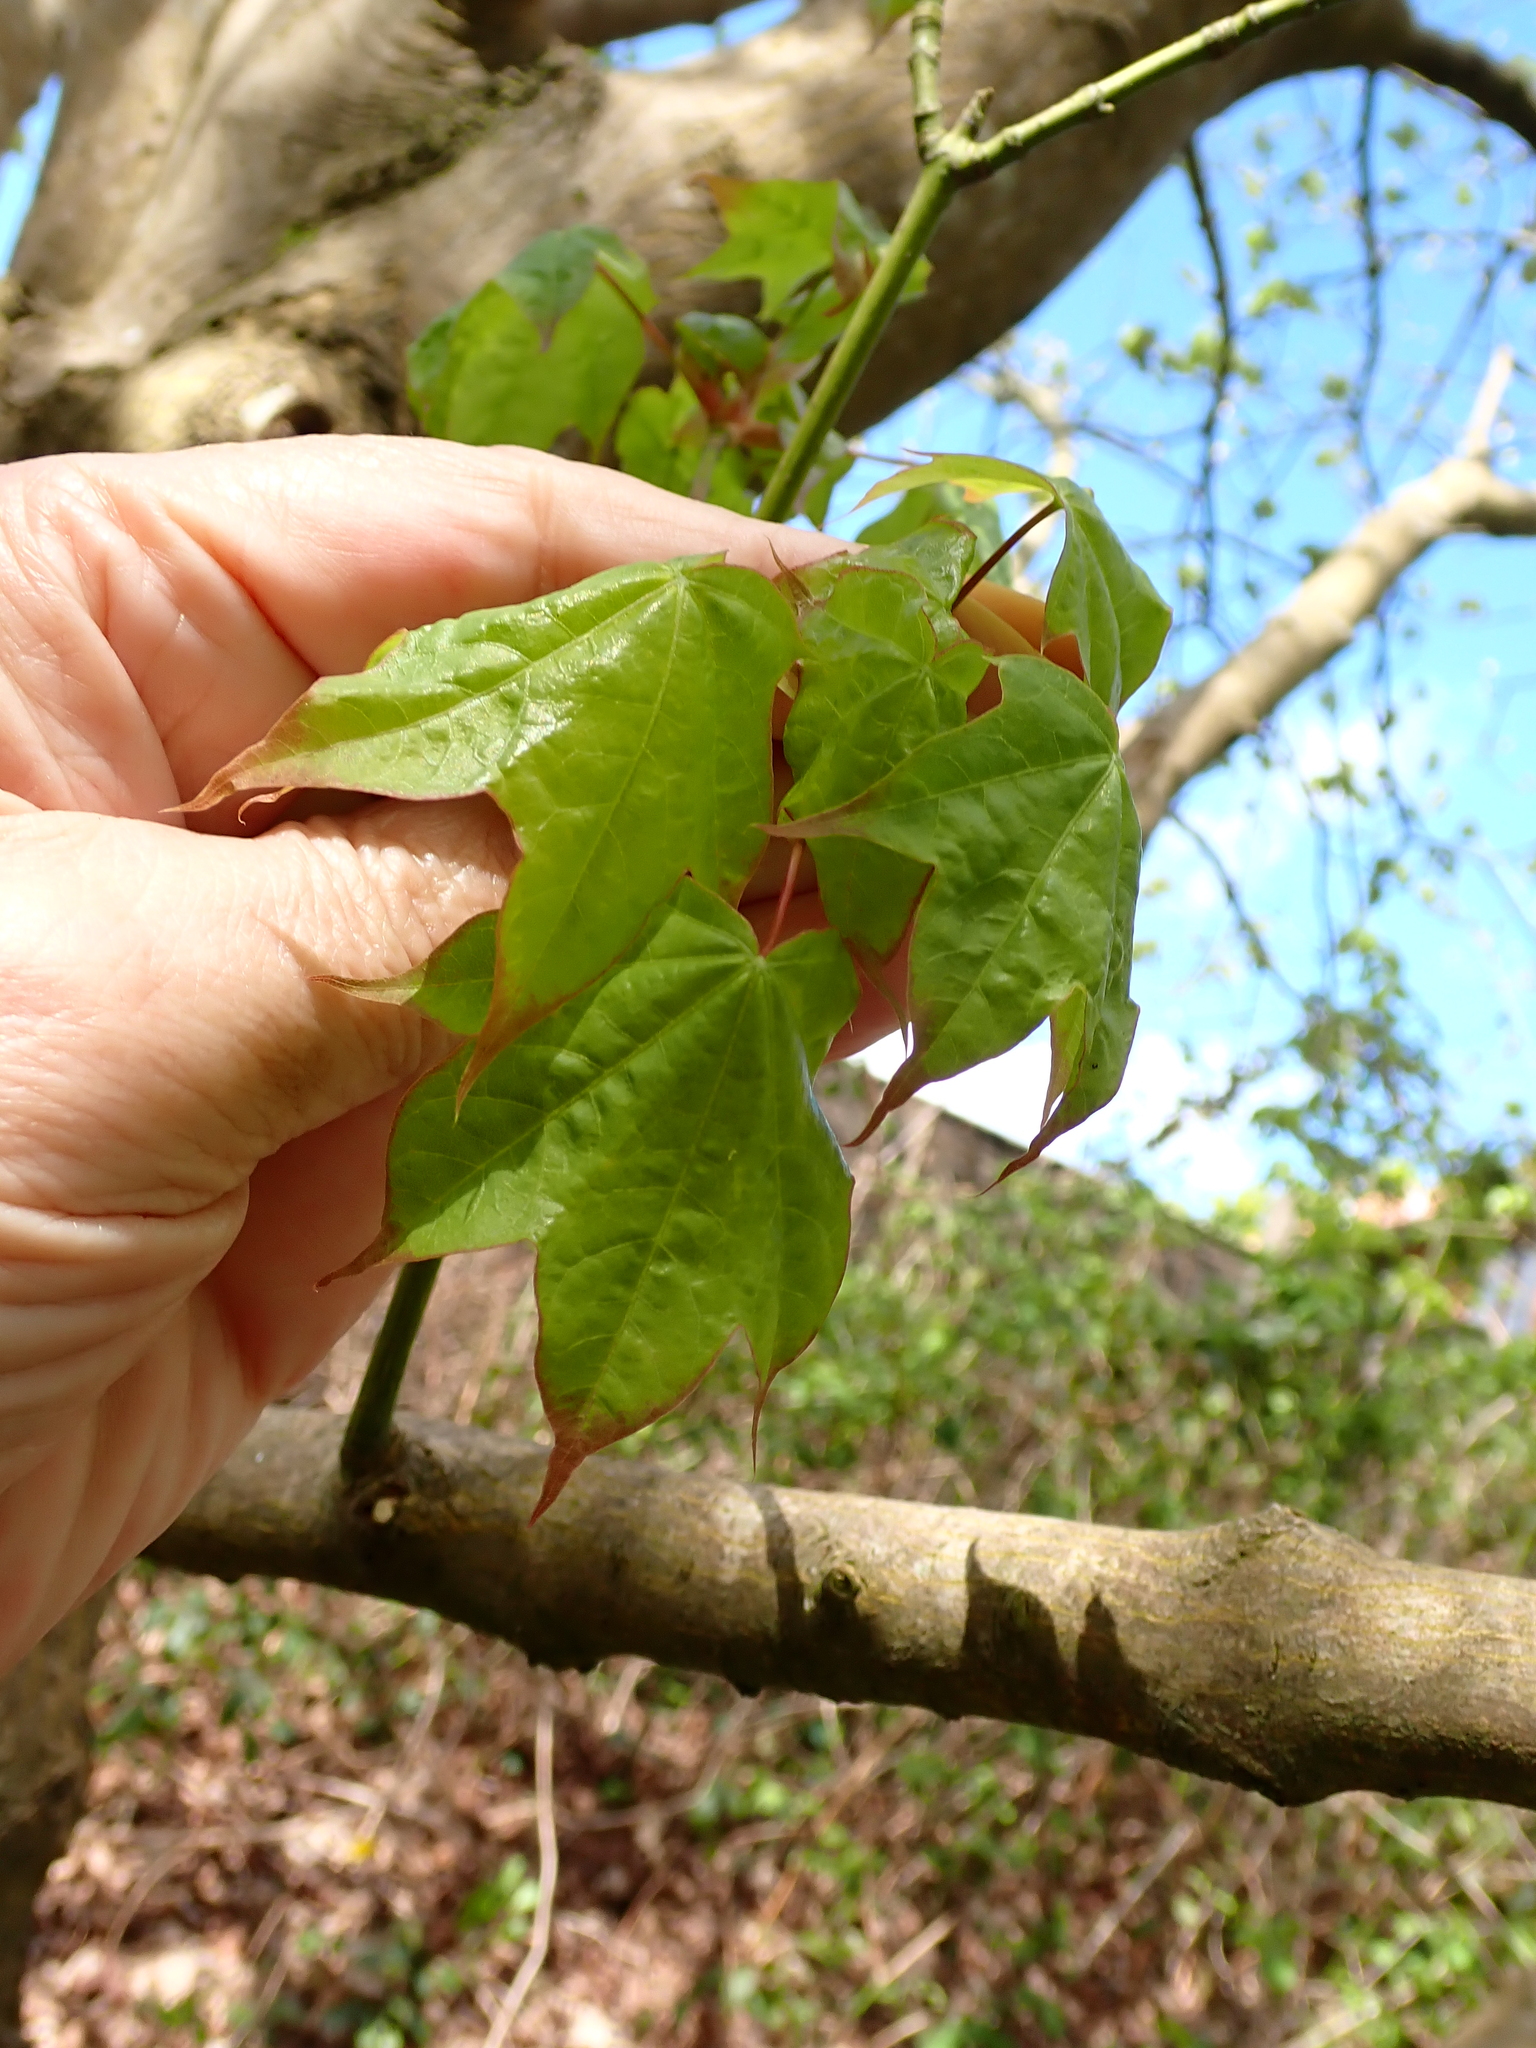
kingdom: Plantae
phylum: Tracheophyta
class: Magnoliopsida
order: Sapindales
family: Sapindaceae
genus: Acer
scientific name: Acer cappadocicum
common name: Cappadocian maple
